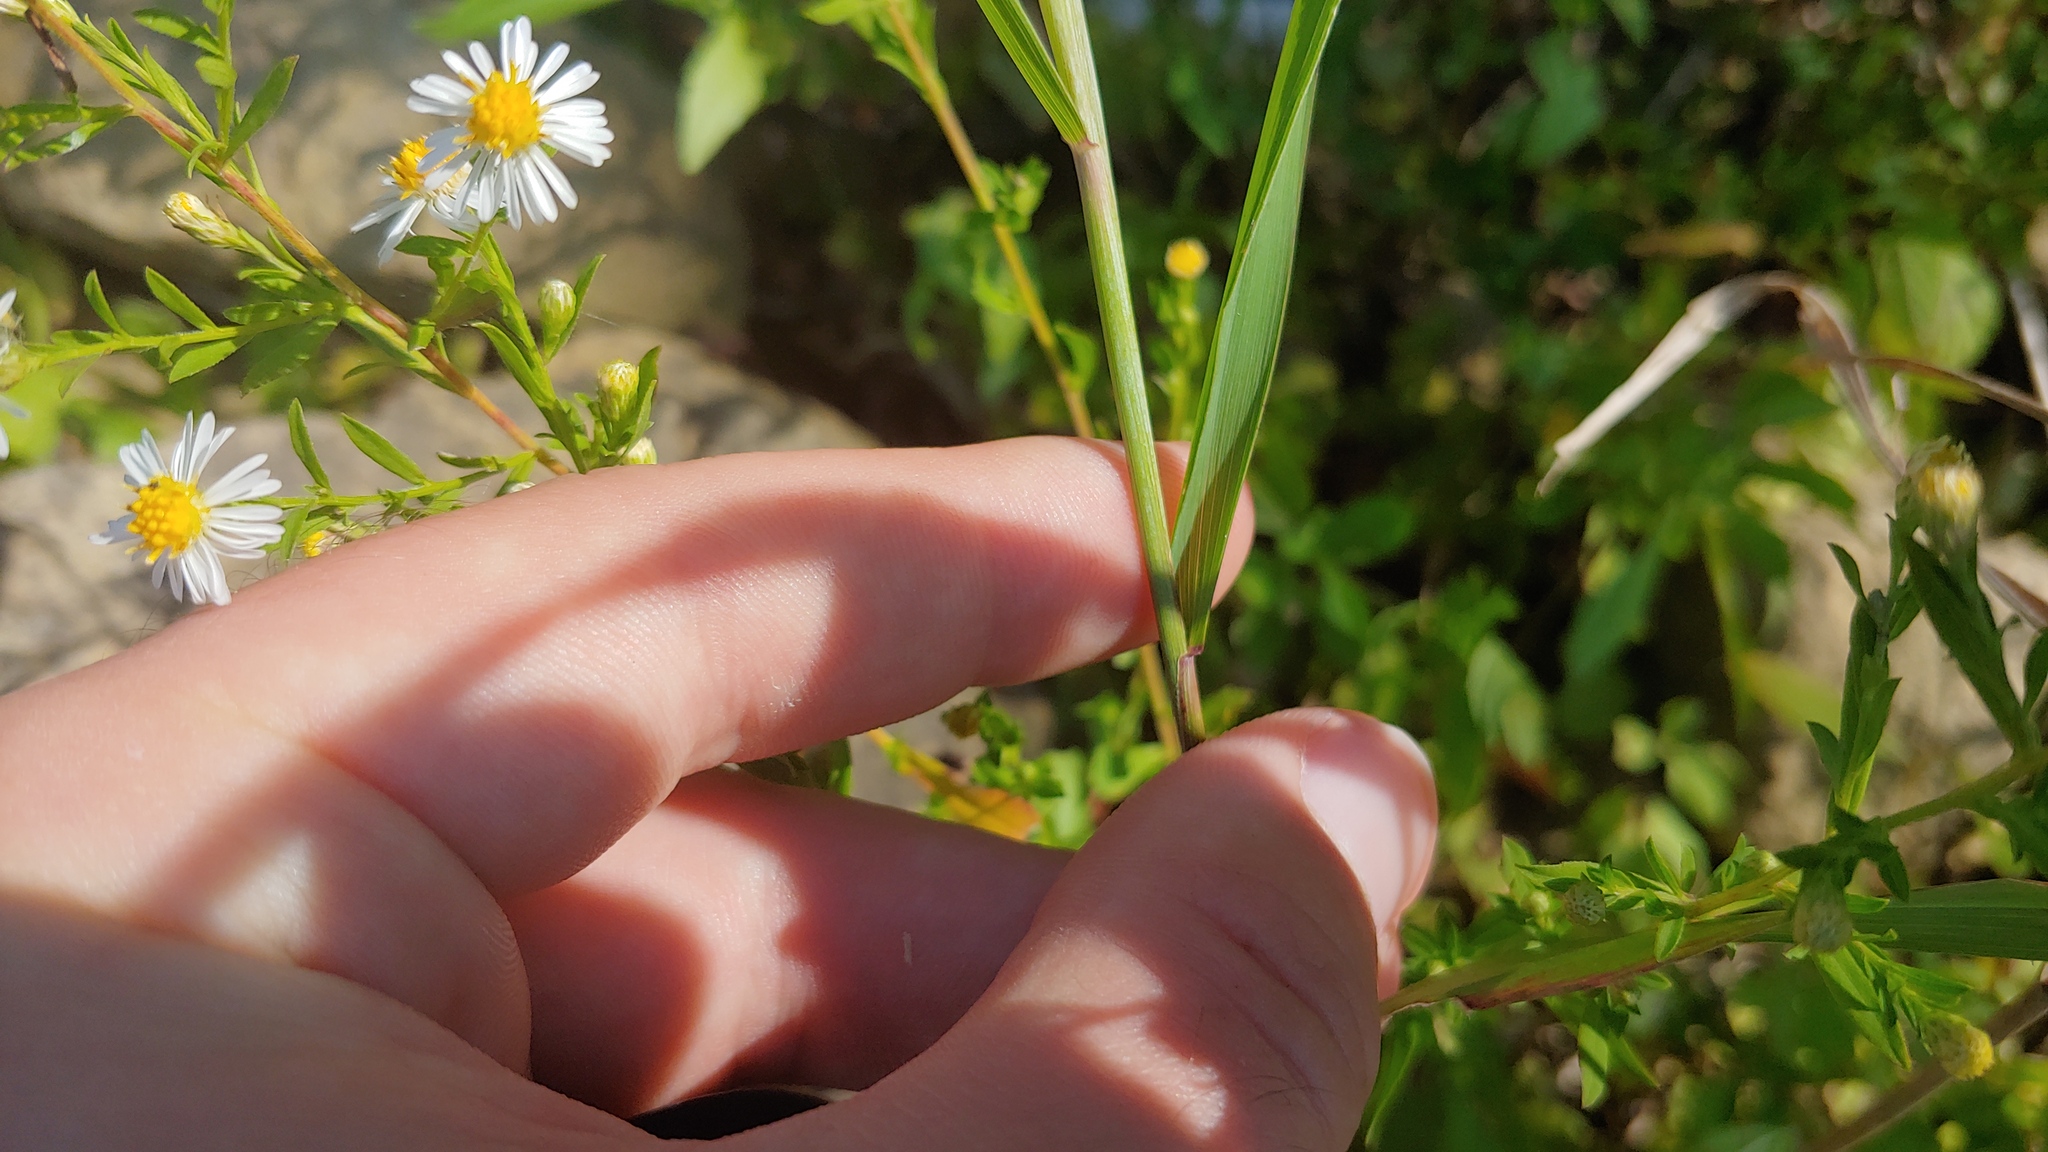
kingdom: Plantae
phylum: Tracheophyta
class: Liliopsida
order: Poales
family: Poaceae
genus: Elymus
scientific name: Elymus virginicus
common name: Common eastern wildrye
